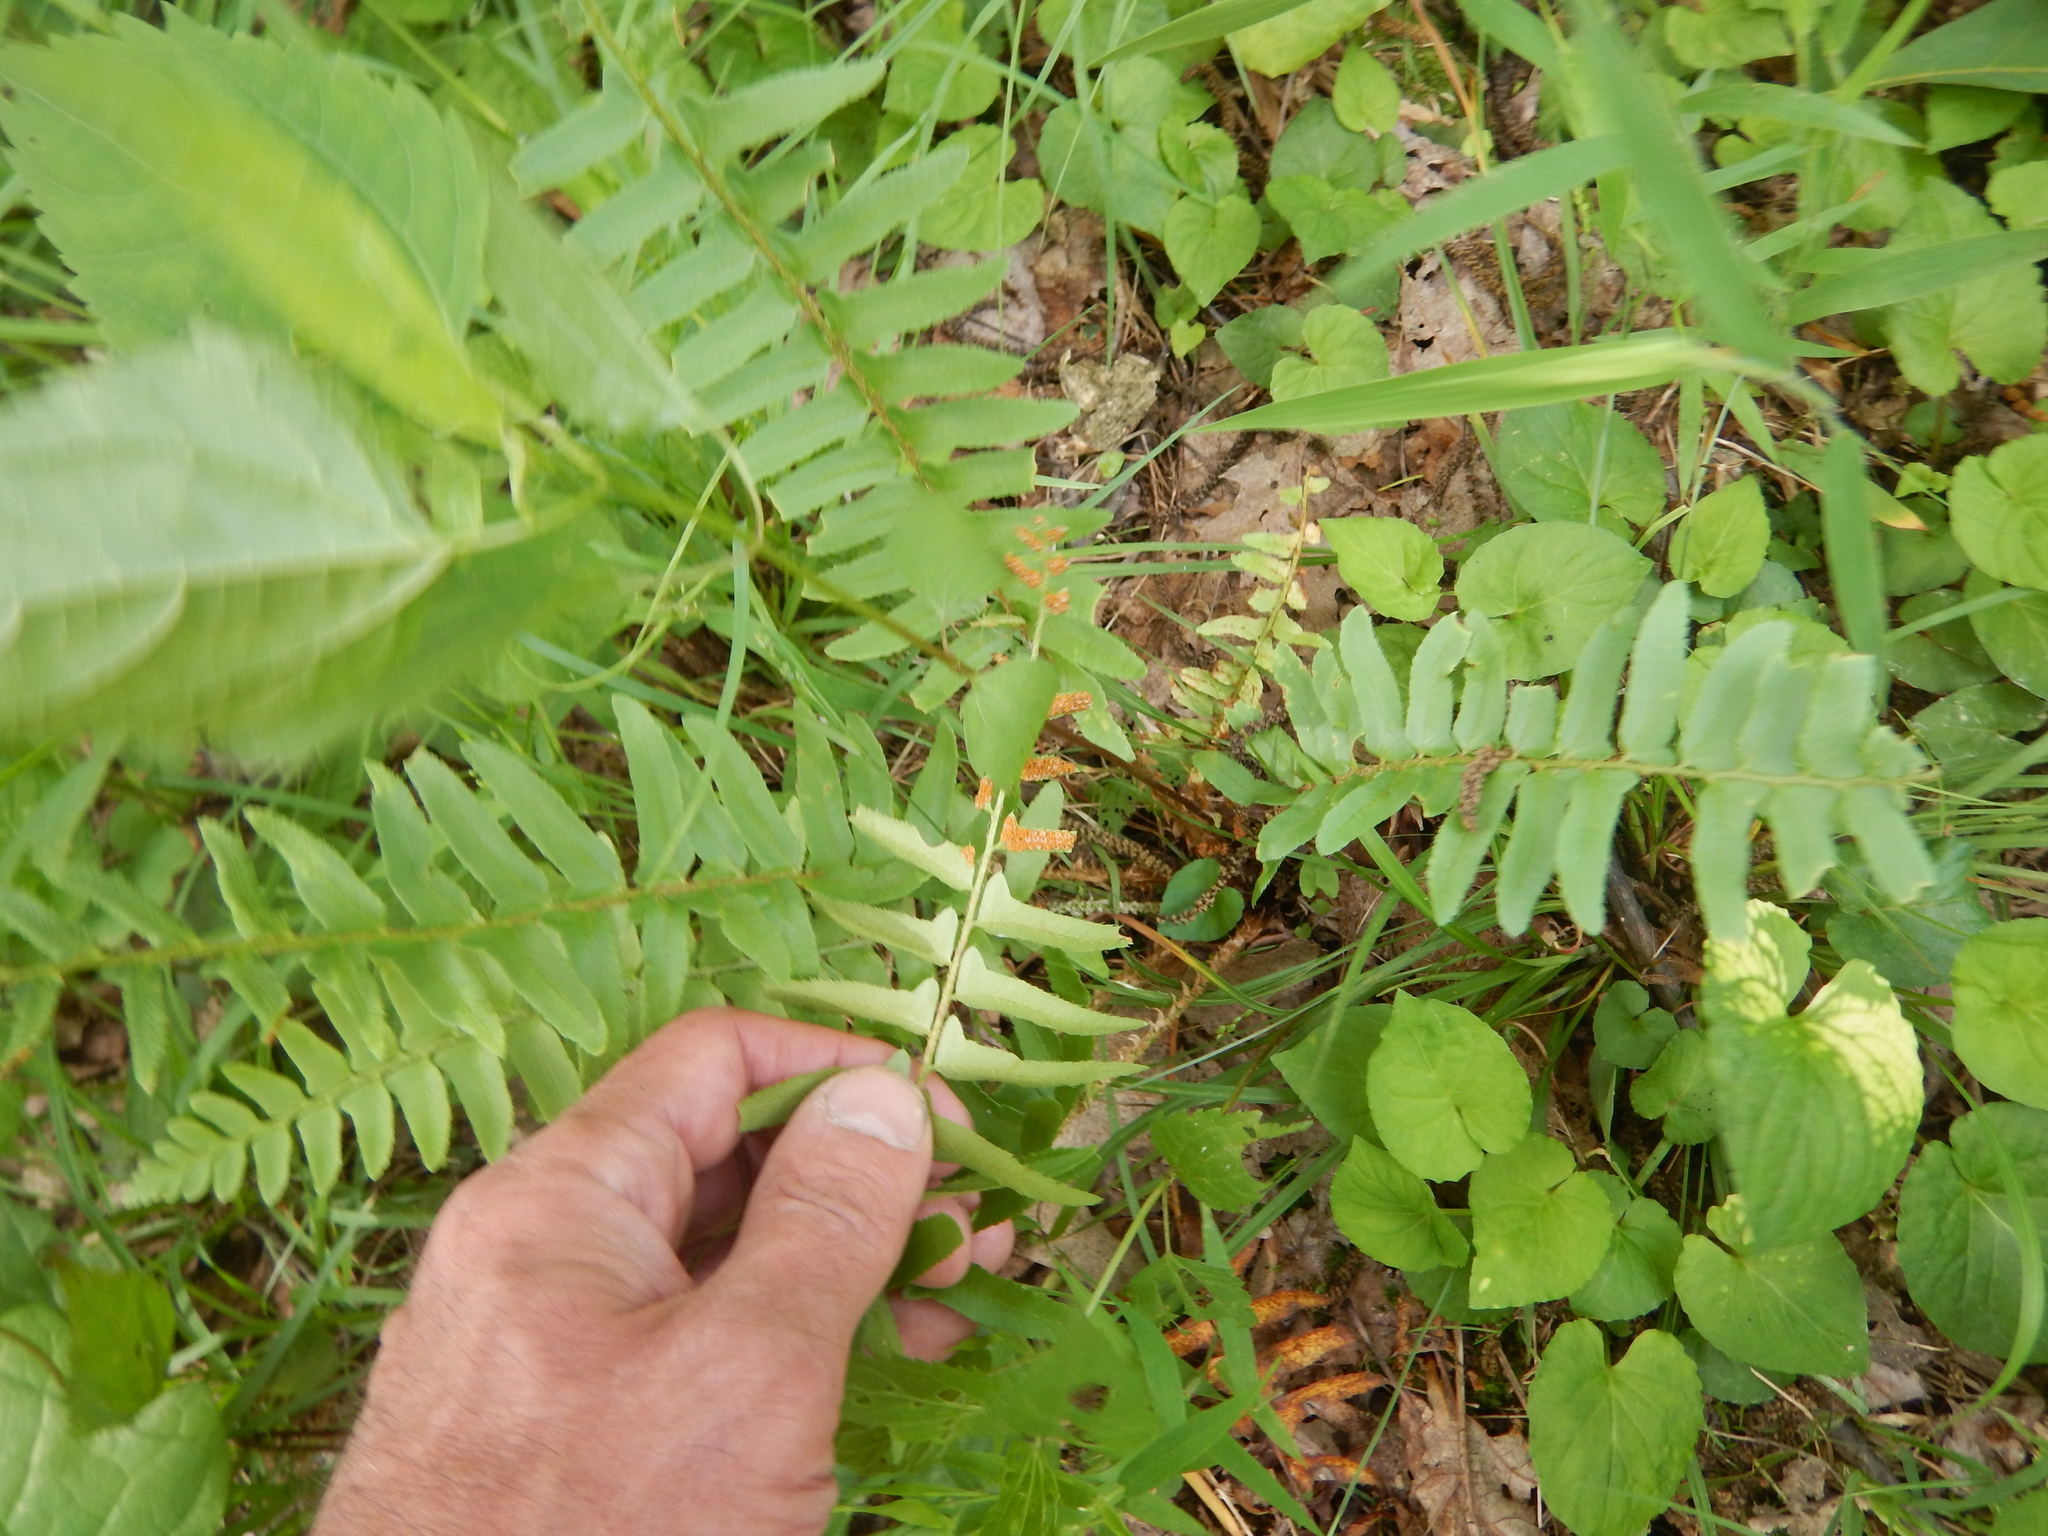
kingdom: Plantae
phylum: Tracheophyta
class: Polypodiopsida
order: Polypodiales
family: Dryopteridaceae
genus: Polystichum
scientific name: Polystichum acrostichoides
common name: Christmas fern
